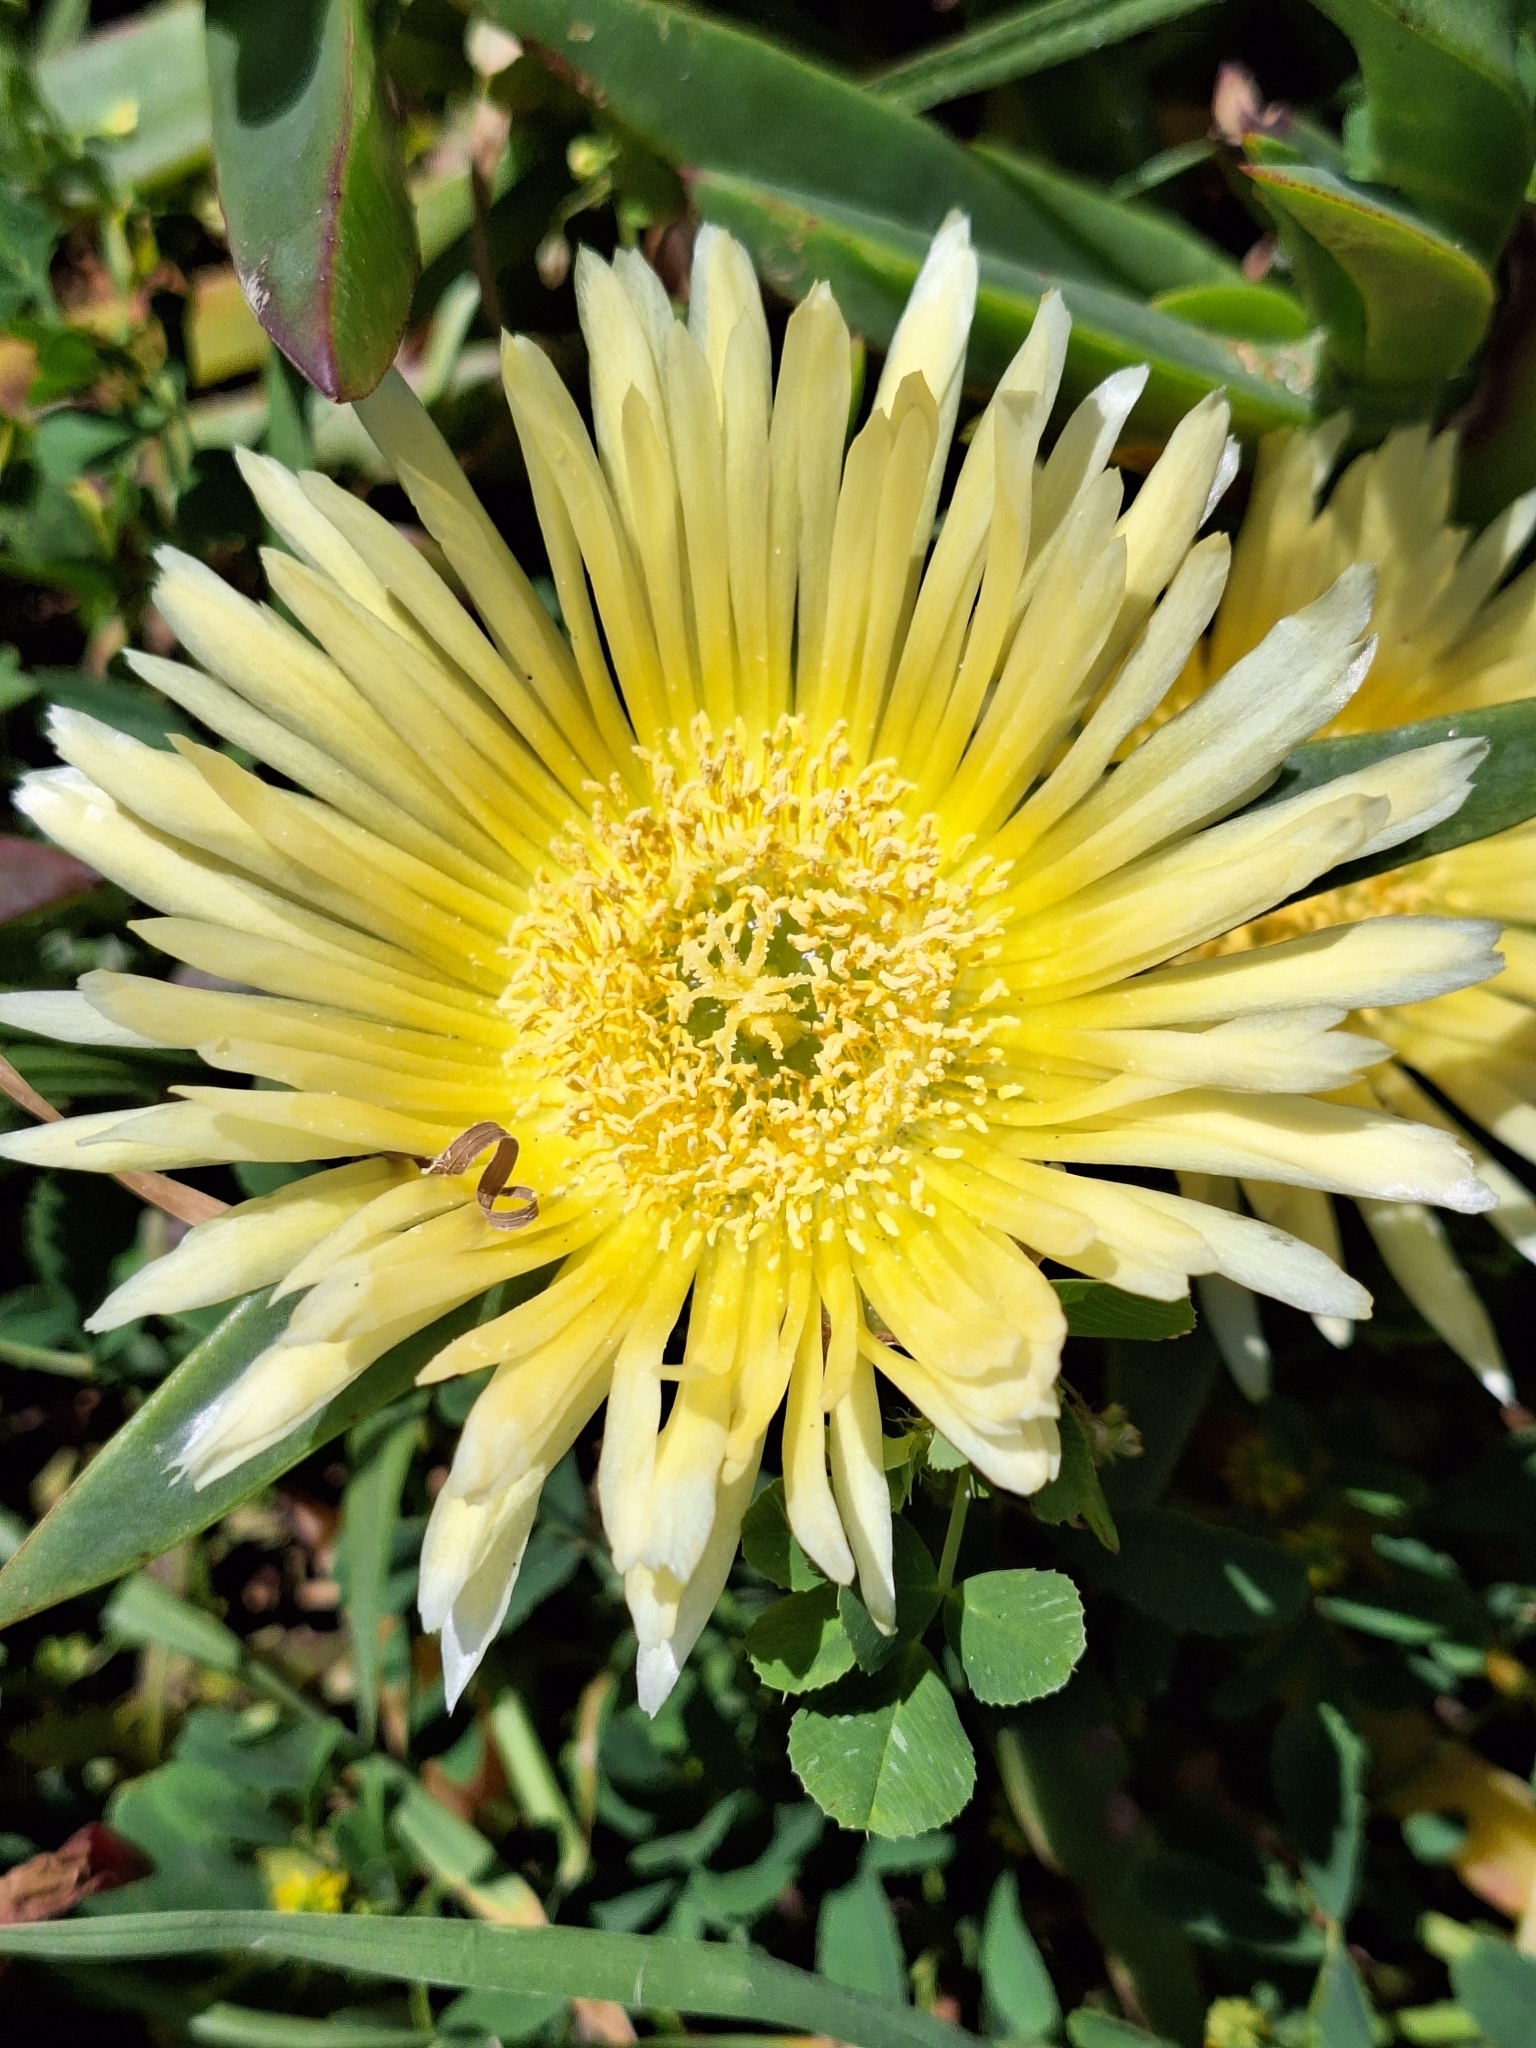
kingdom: Plantae
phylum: Tracheophyta
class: Magnoliopsida
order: Caryophyllales
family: Aizoaceae
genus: Carpobrotus
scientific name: Carpobrotus edulis
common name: Hottentot-fig
